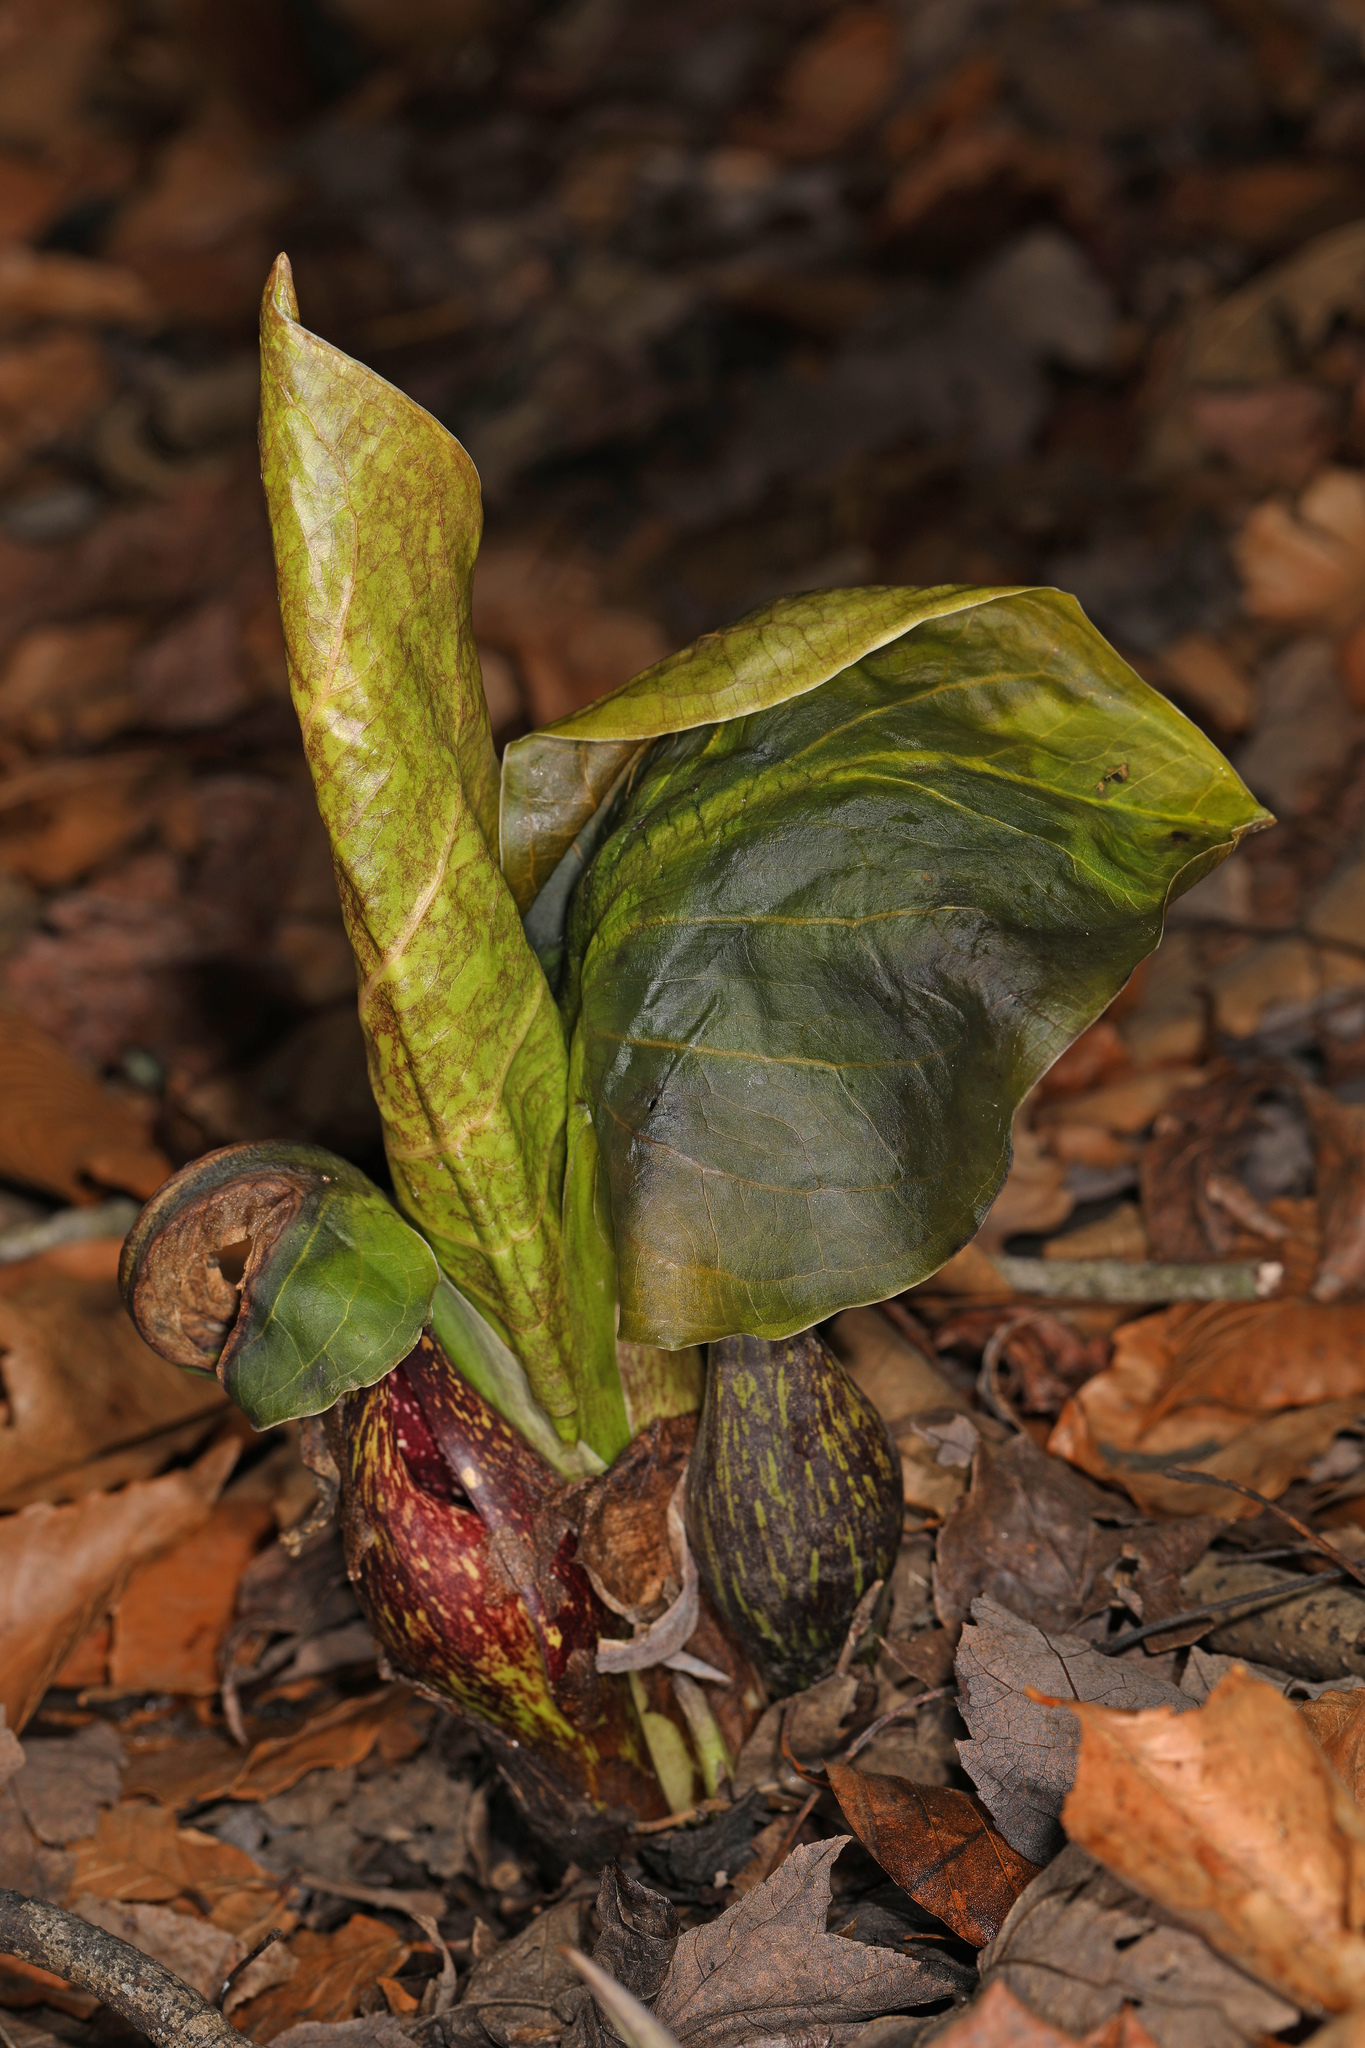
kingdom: Plantae
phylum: Tracheophyta
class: Liliopsida
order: Alismatales
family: Araceae
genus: Symplocarpus
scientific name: Symplocarpus foetidus
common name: Eastern skunk cabbage
